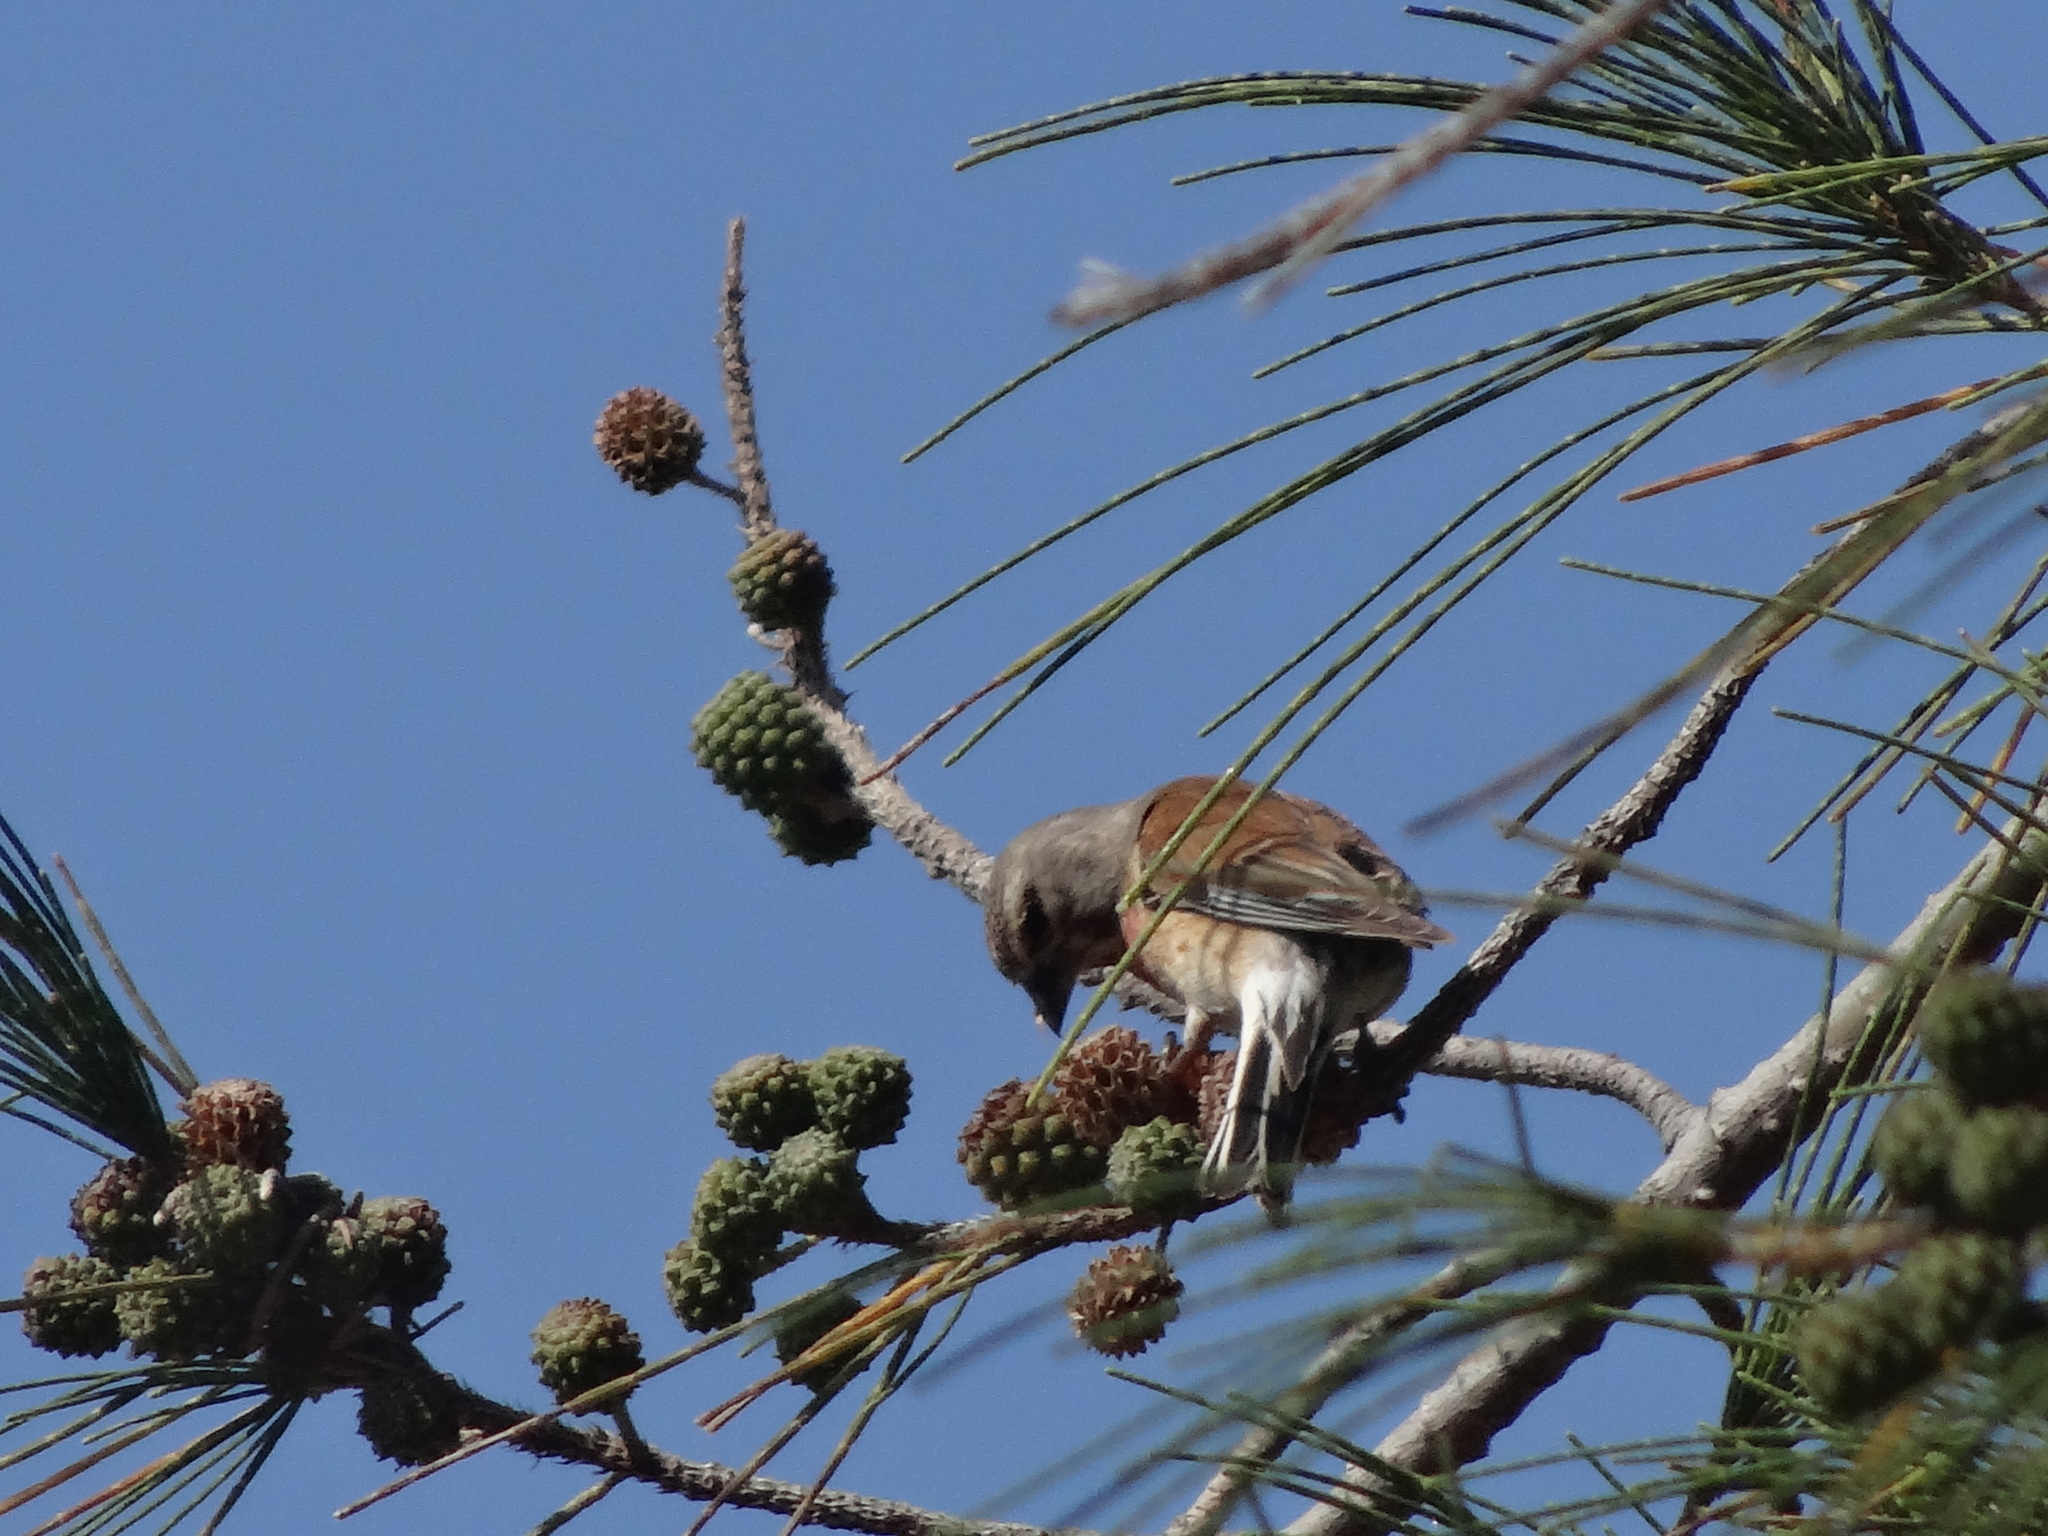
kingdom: Animalia
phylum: Chordata
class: Aves
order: Passeriformes
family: Fringillidae
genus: Linaria
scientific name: Linaria cannabina
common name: Common linnet
